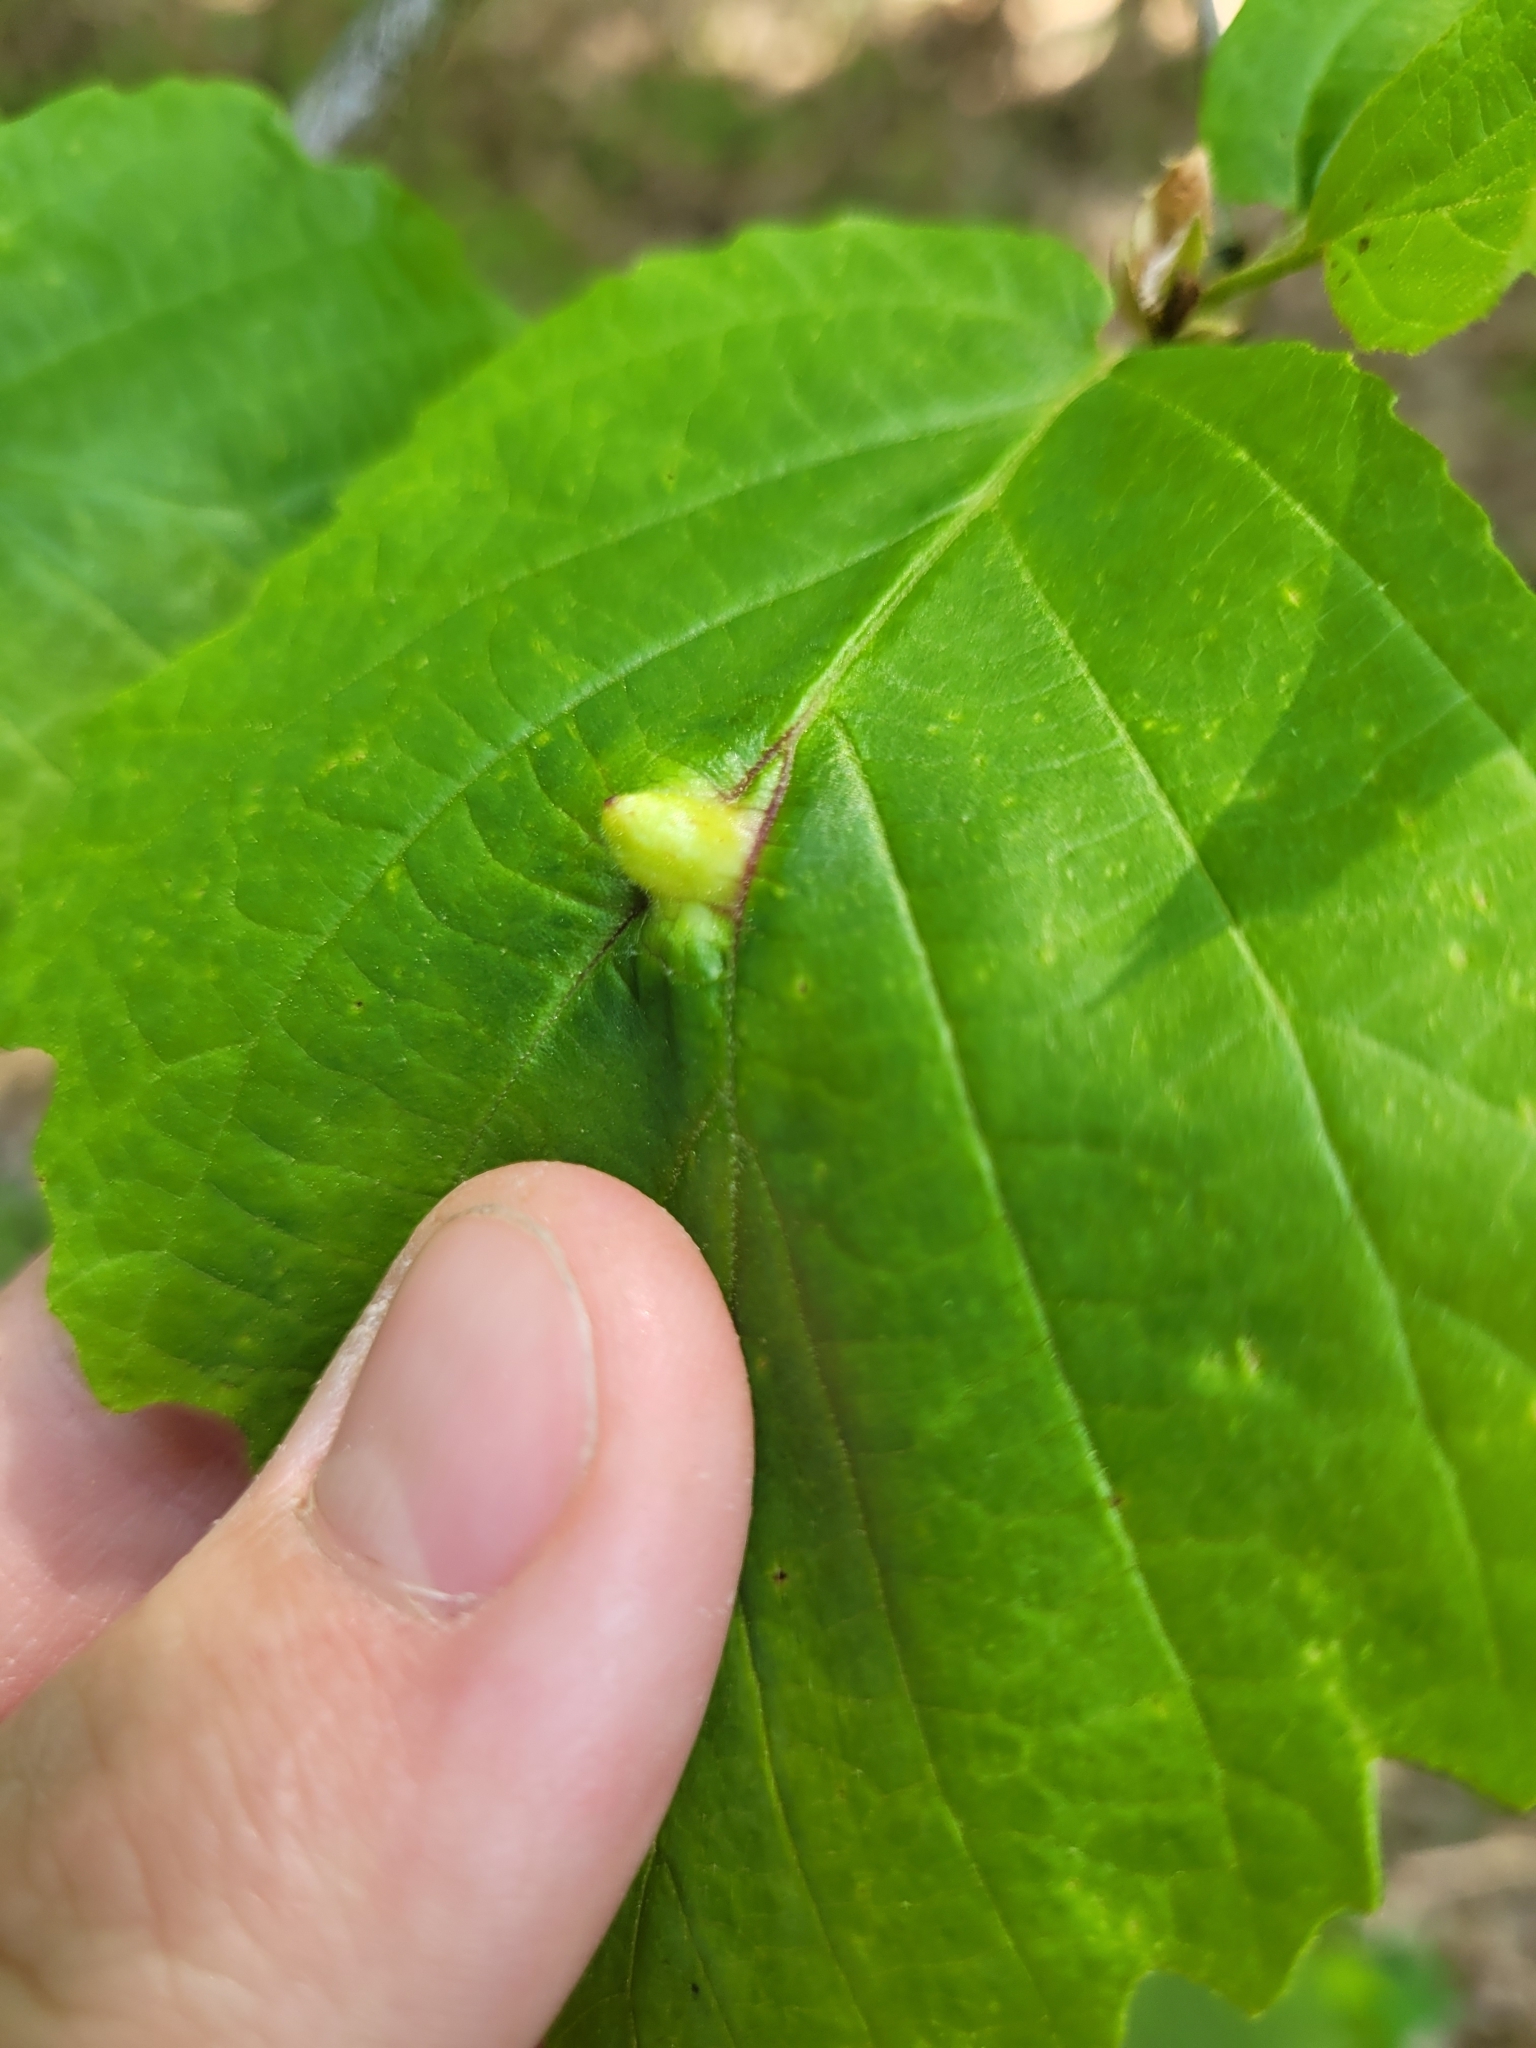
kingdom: Animalia
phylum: Arthropoda
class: Insecta
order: Hemiptera
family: Aphididae
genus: Hormaphis
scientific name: Hormaphis hamamelidis
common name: Witch-hazel cone gall aphid
